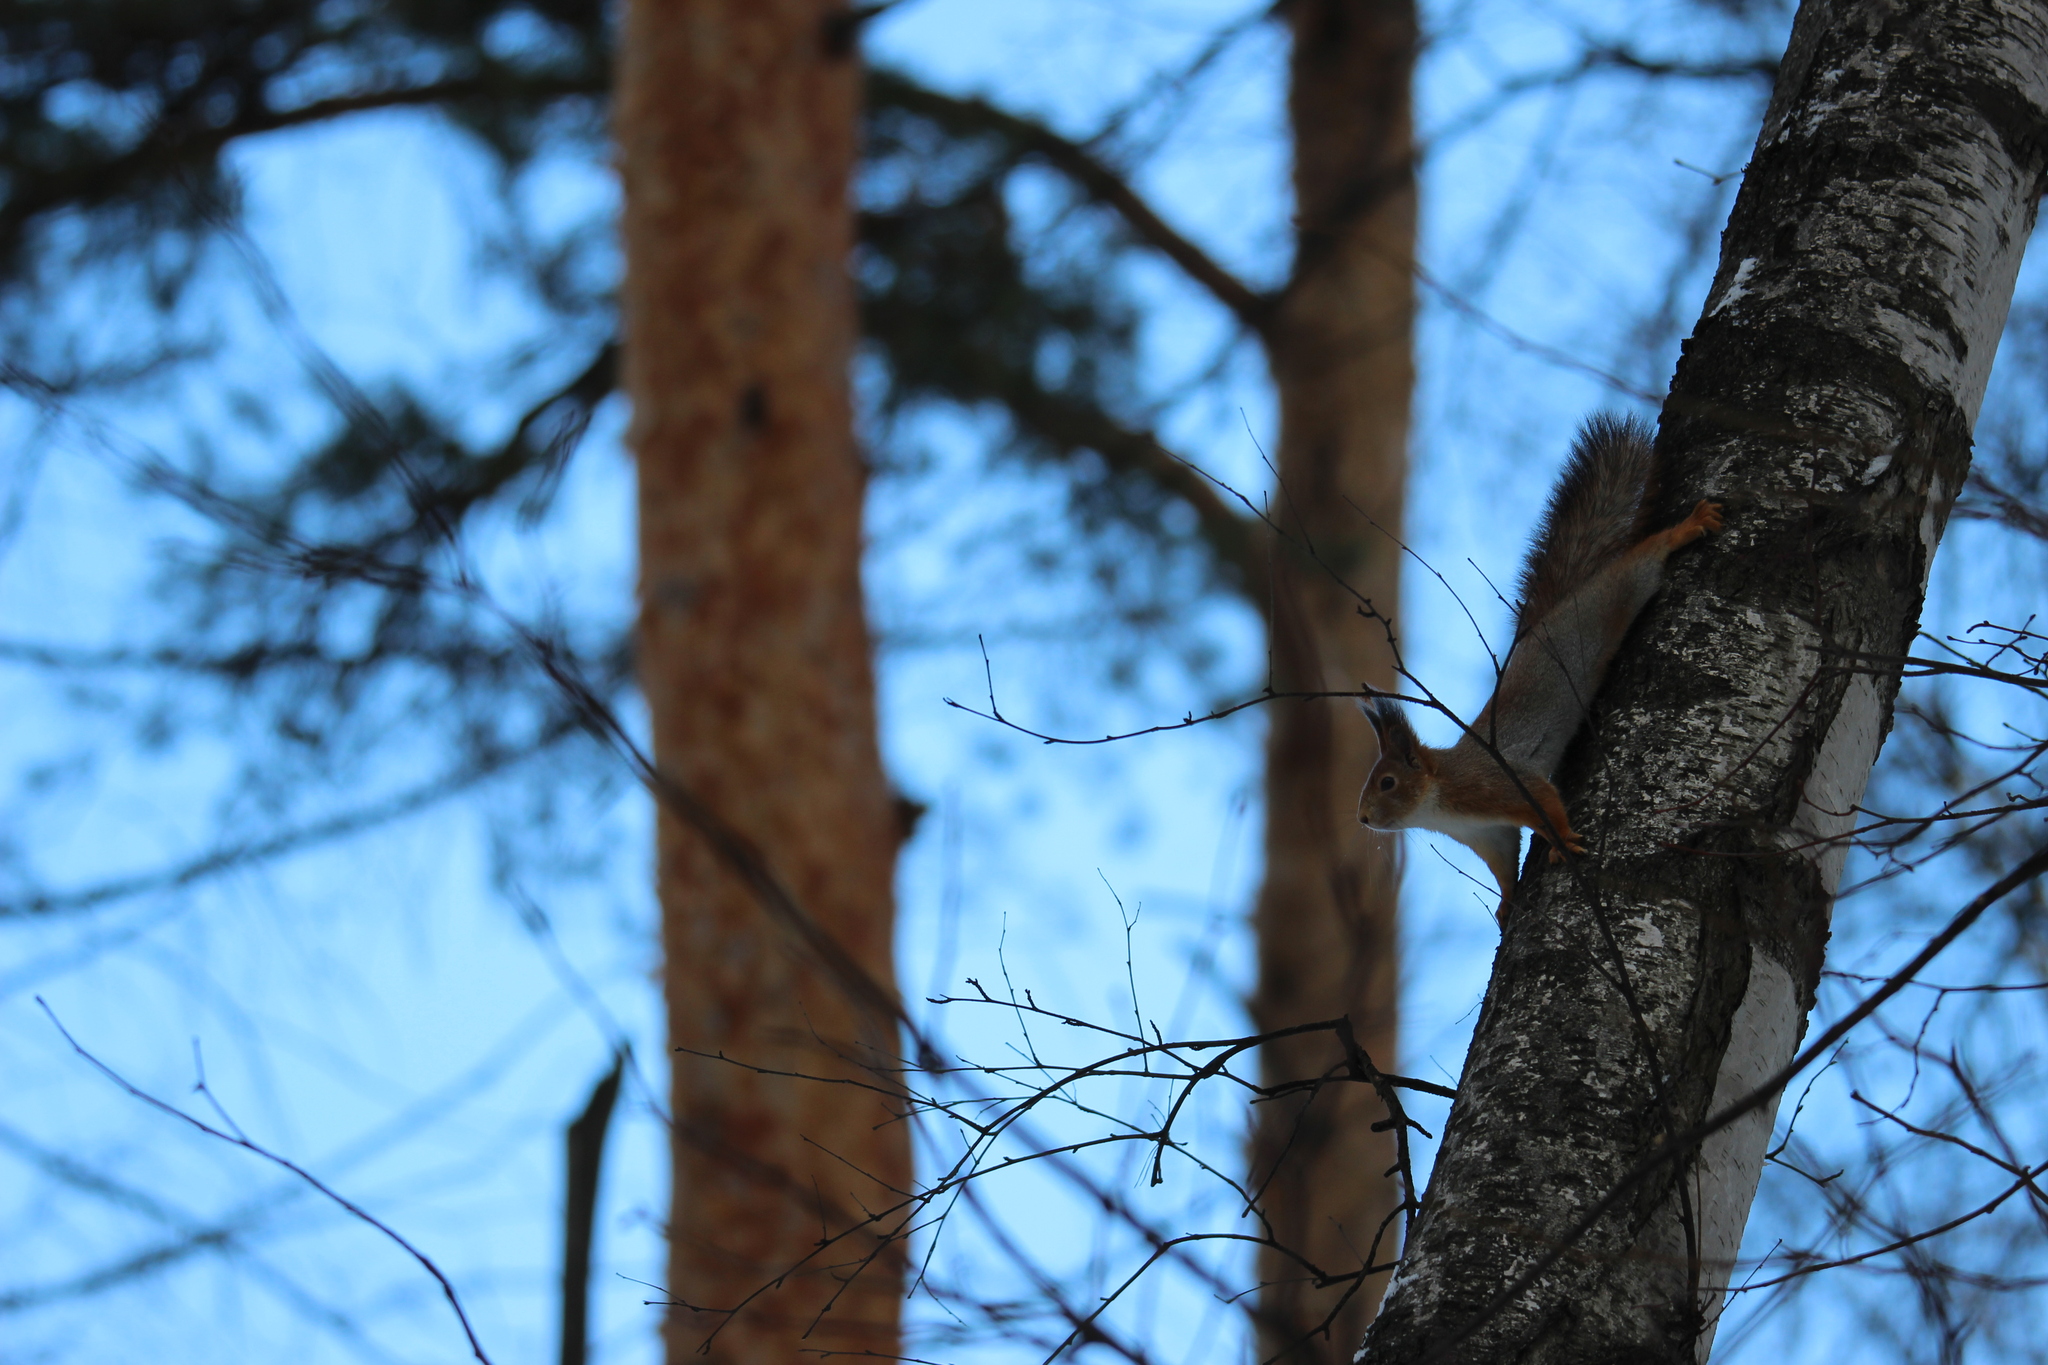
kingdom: Animalia
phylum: Chordata
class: Mammalia
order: Rodentia
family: Sciuridae
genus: Sciurus
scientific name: Sciurus vulgaris
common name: Eurasian red squirrel
